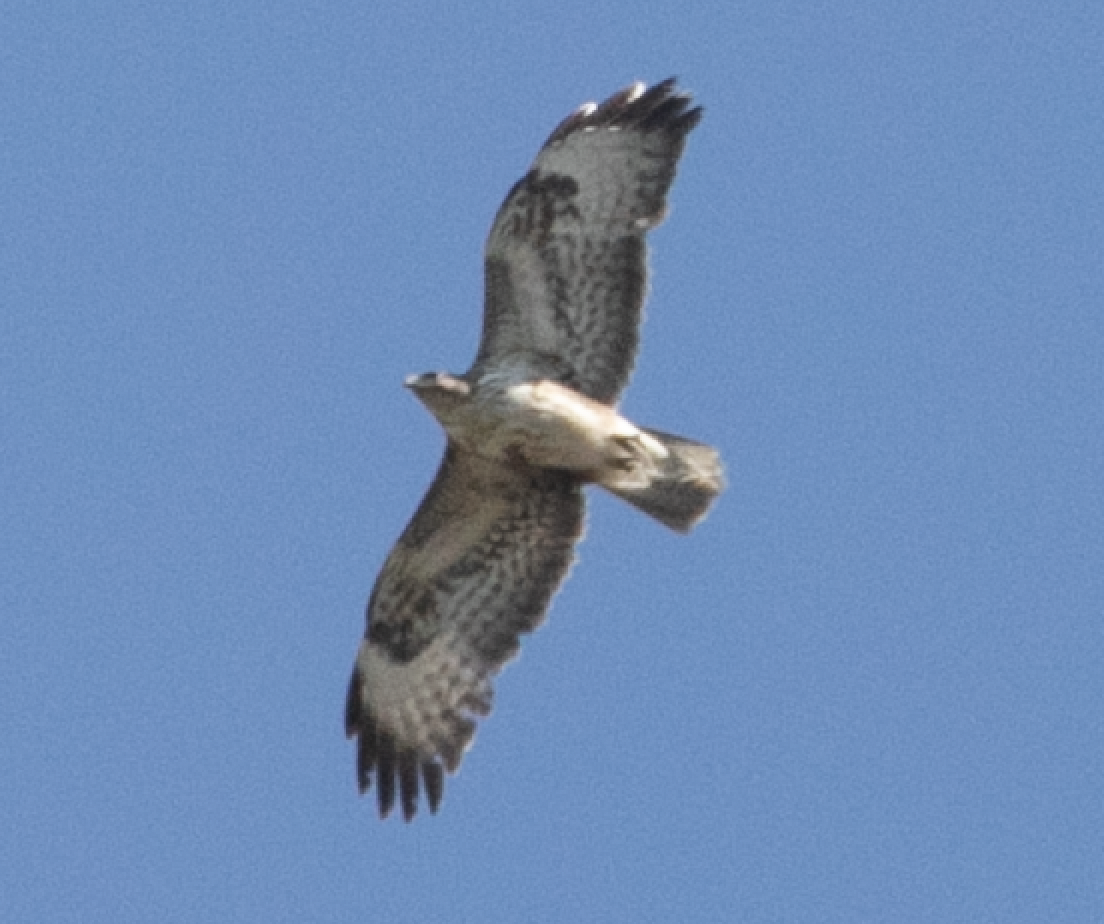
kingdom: Animalia
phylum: Chordata
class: Aves
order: Accipitriformes
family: Accipitridae
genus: Buteo
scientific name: Buteo buteo
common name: Common buzzard
